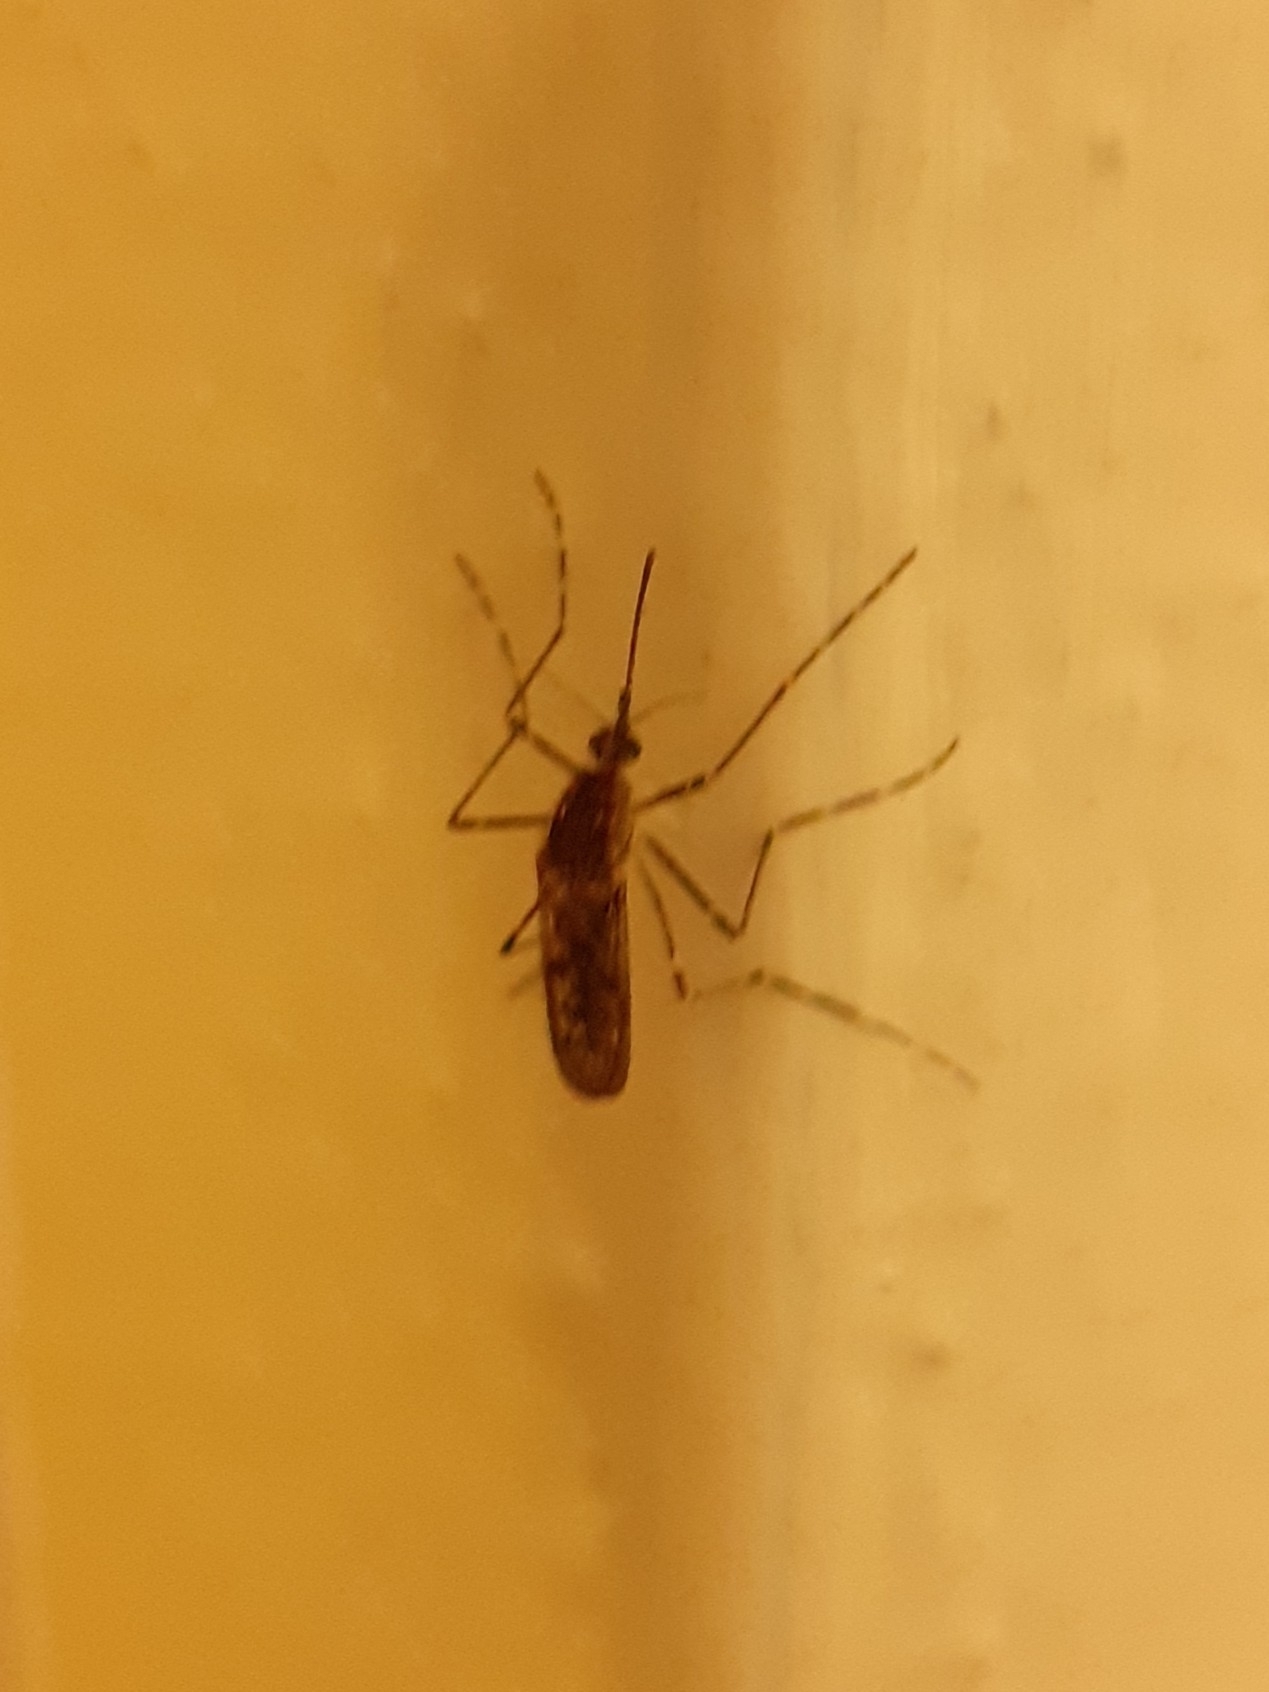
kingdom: Animalia
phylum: Arthropoda
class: Insecta
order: Diptera
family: Culicidae
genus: Culiseta
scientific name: Culiseta annulata
